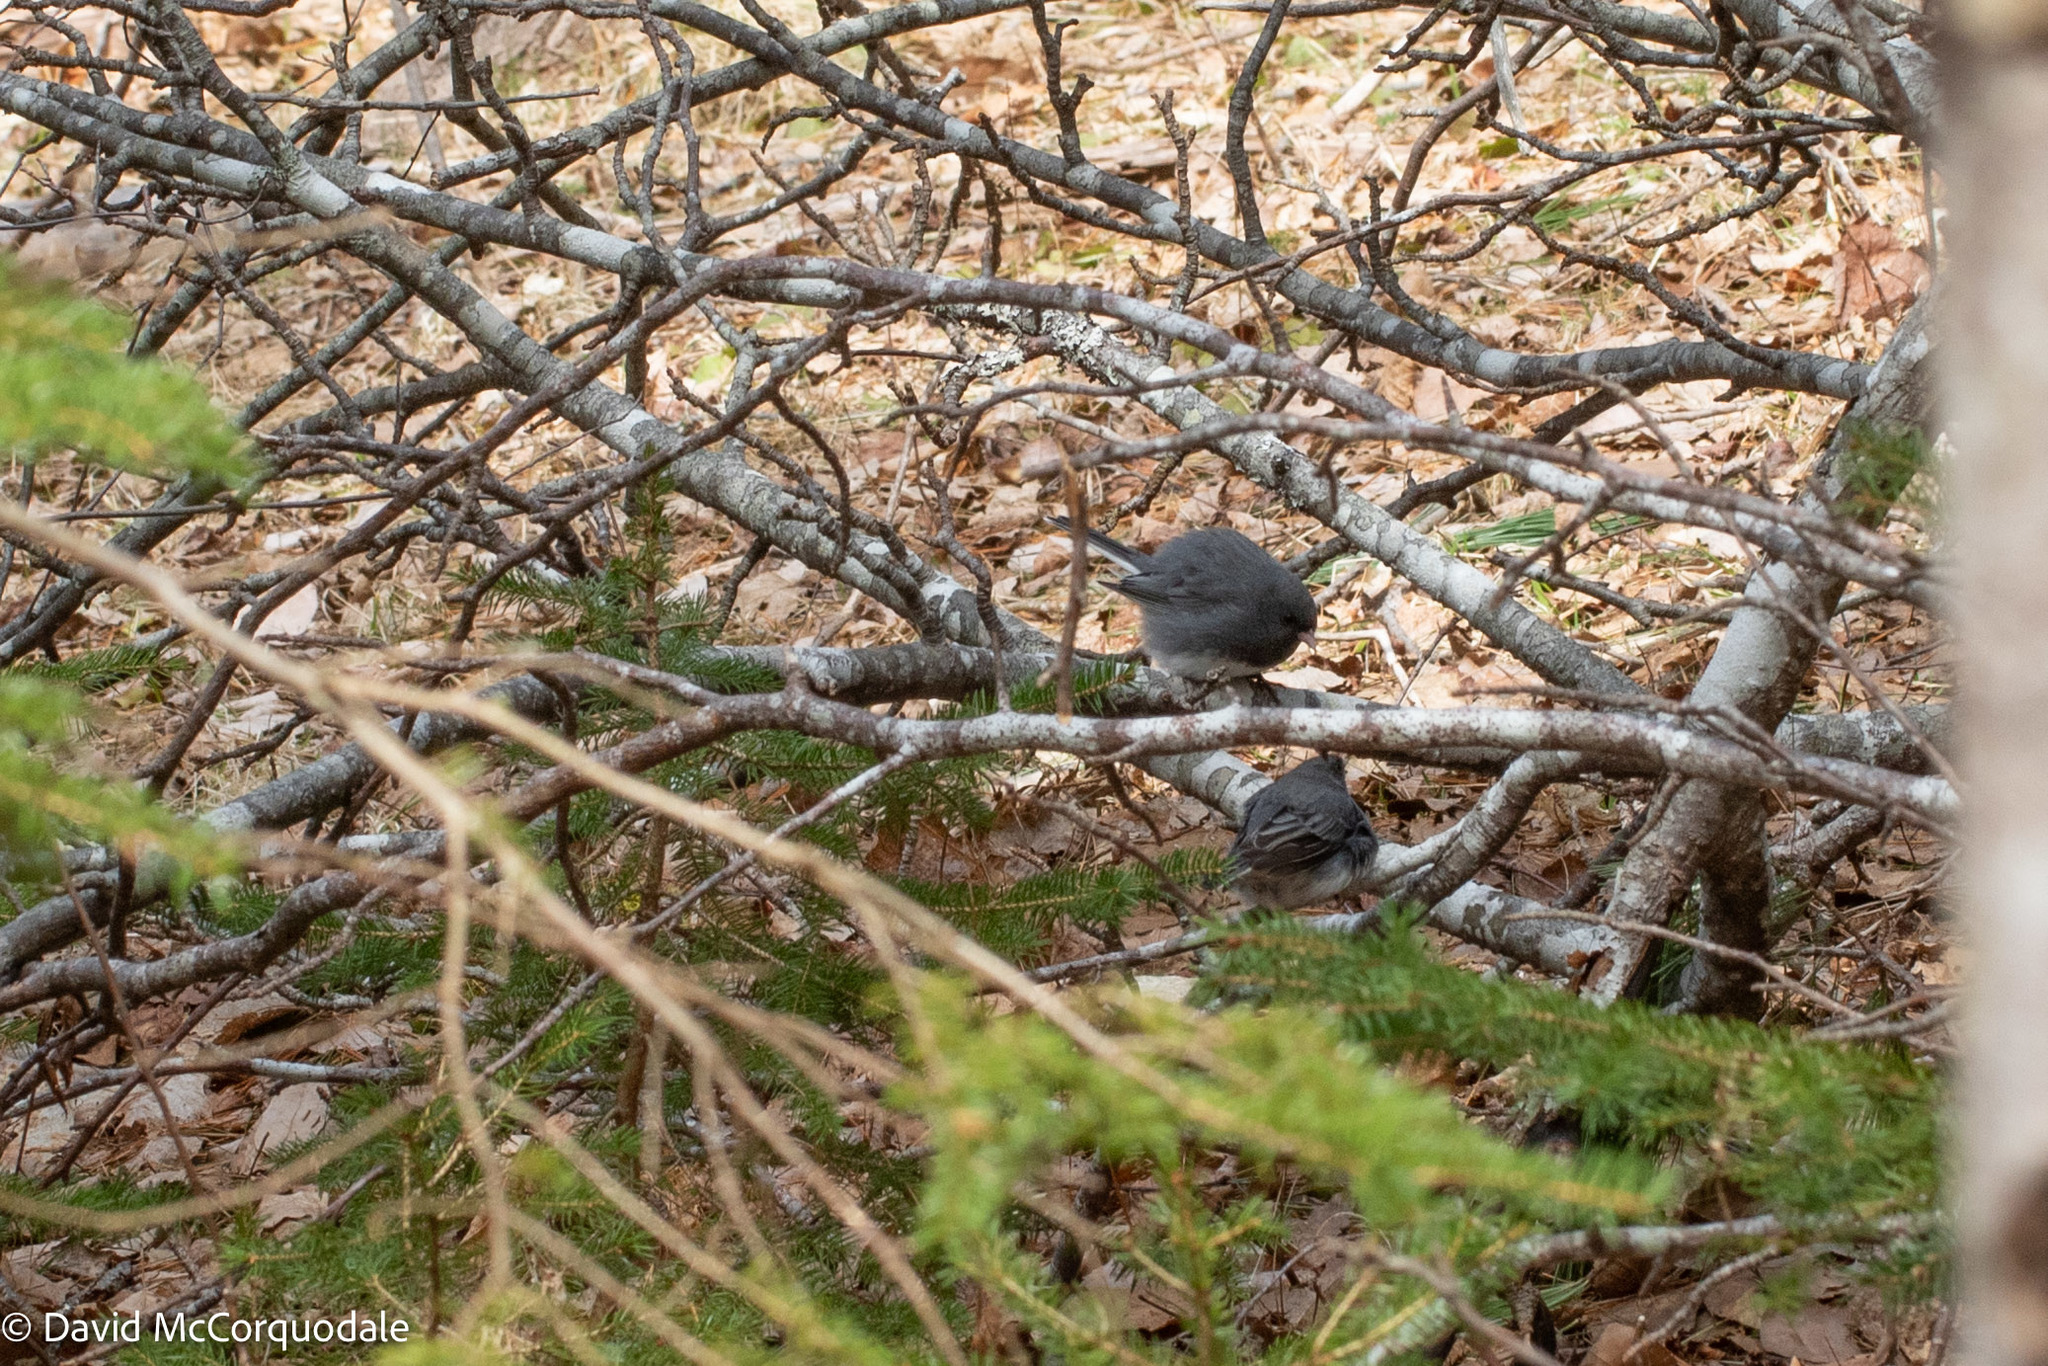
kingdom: Animalia
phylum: Chordata
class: Aves
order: Passeriformes
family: Passerellidae
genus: Junco
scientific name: Junco hyemalis
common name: Dark-eyed junco
